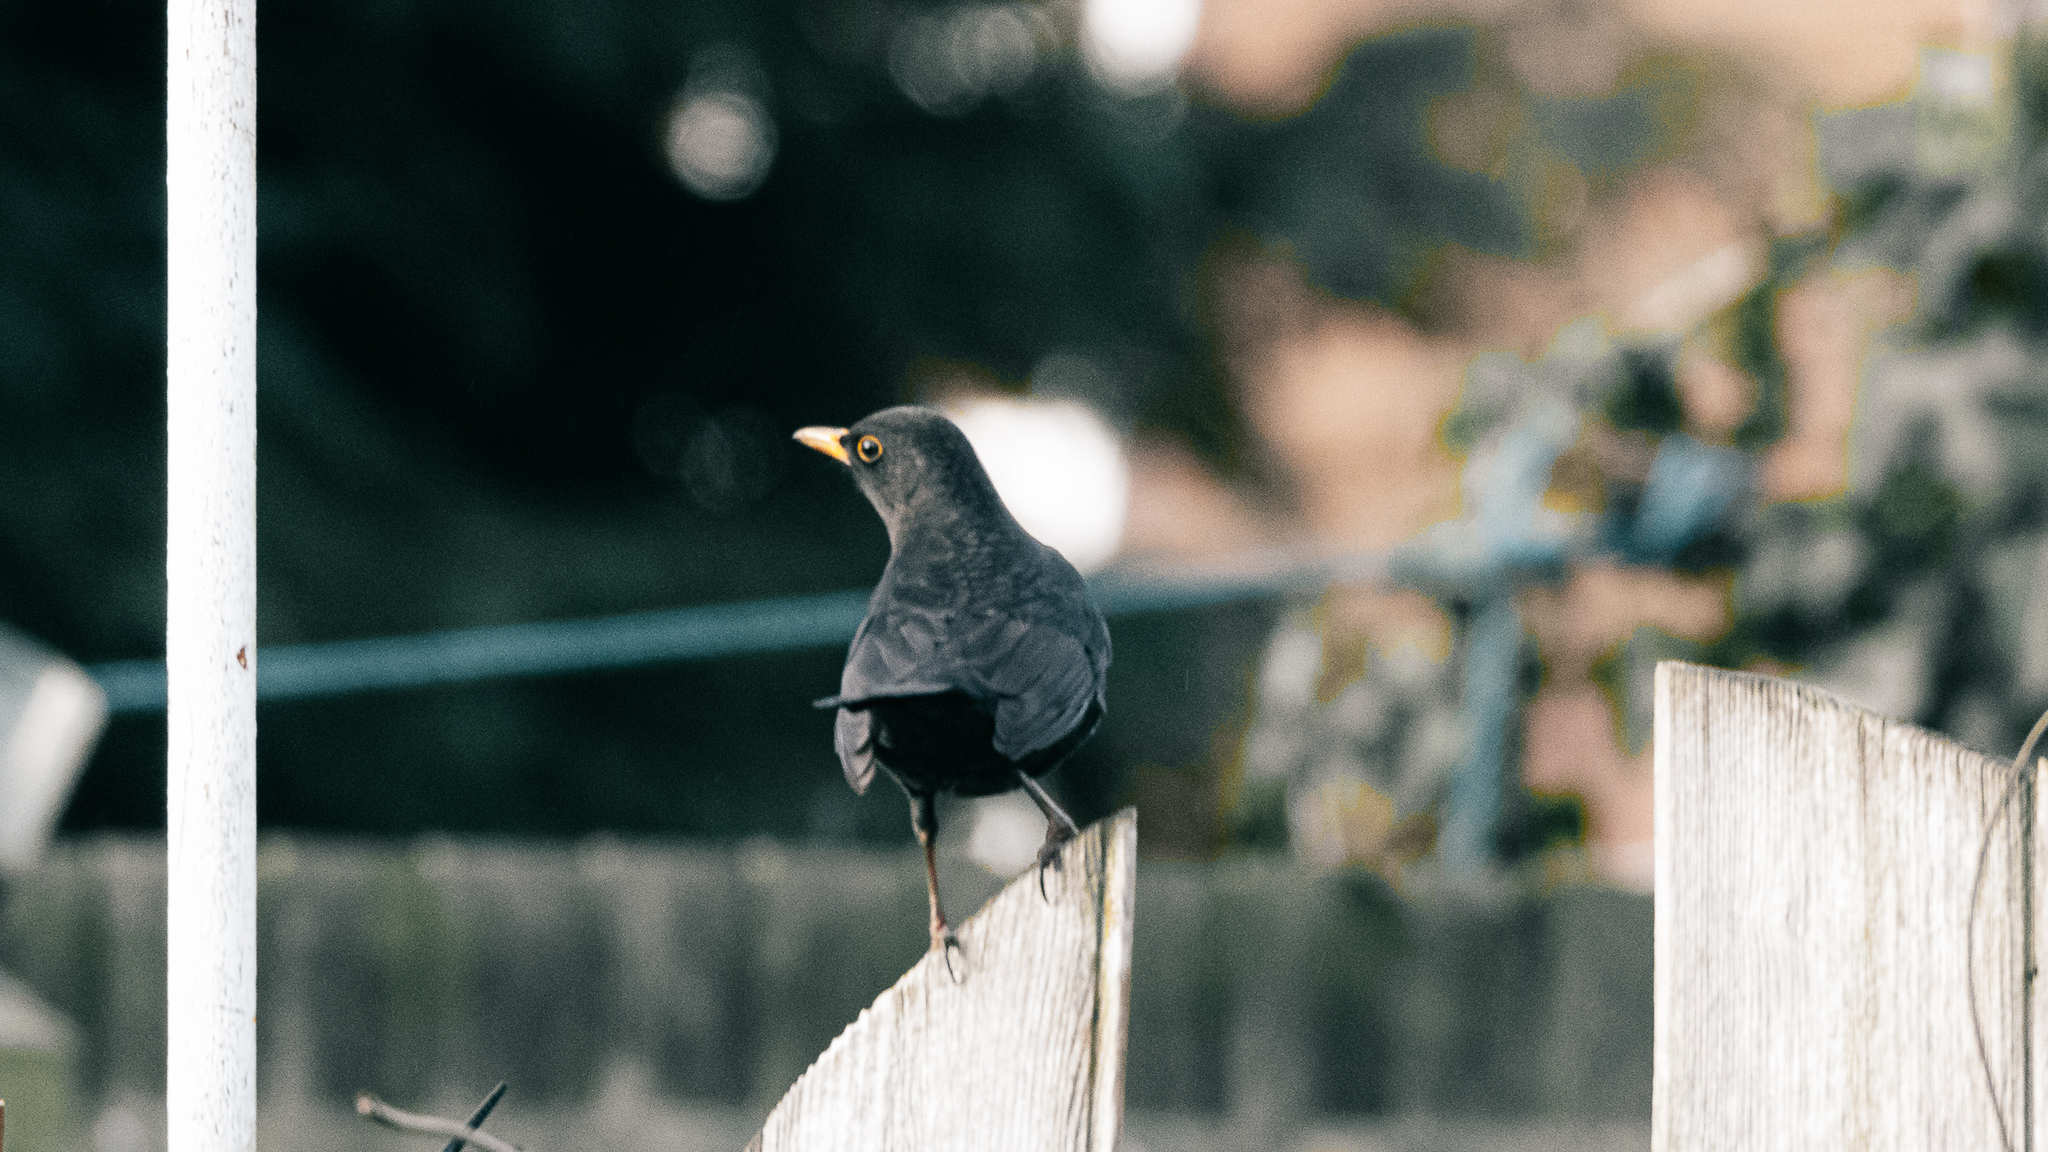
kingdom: Animalia
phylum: Chordata
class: Aves
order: Passeriformes
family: Turdidae
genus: Turdus
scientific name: Turdus merula
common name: Common blackbird
